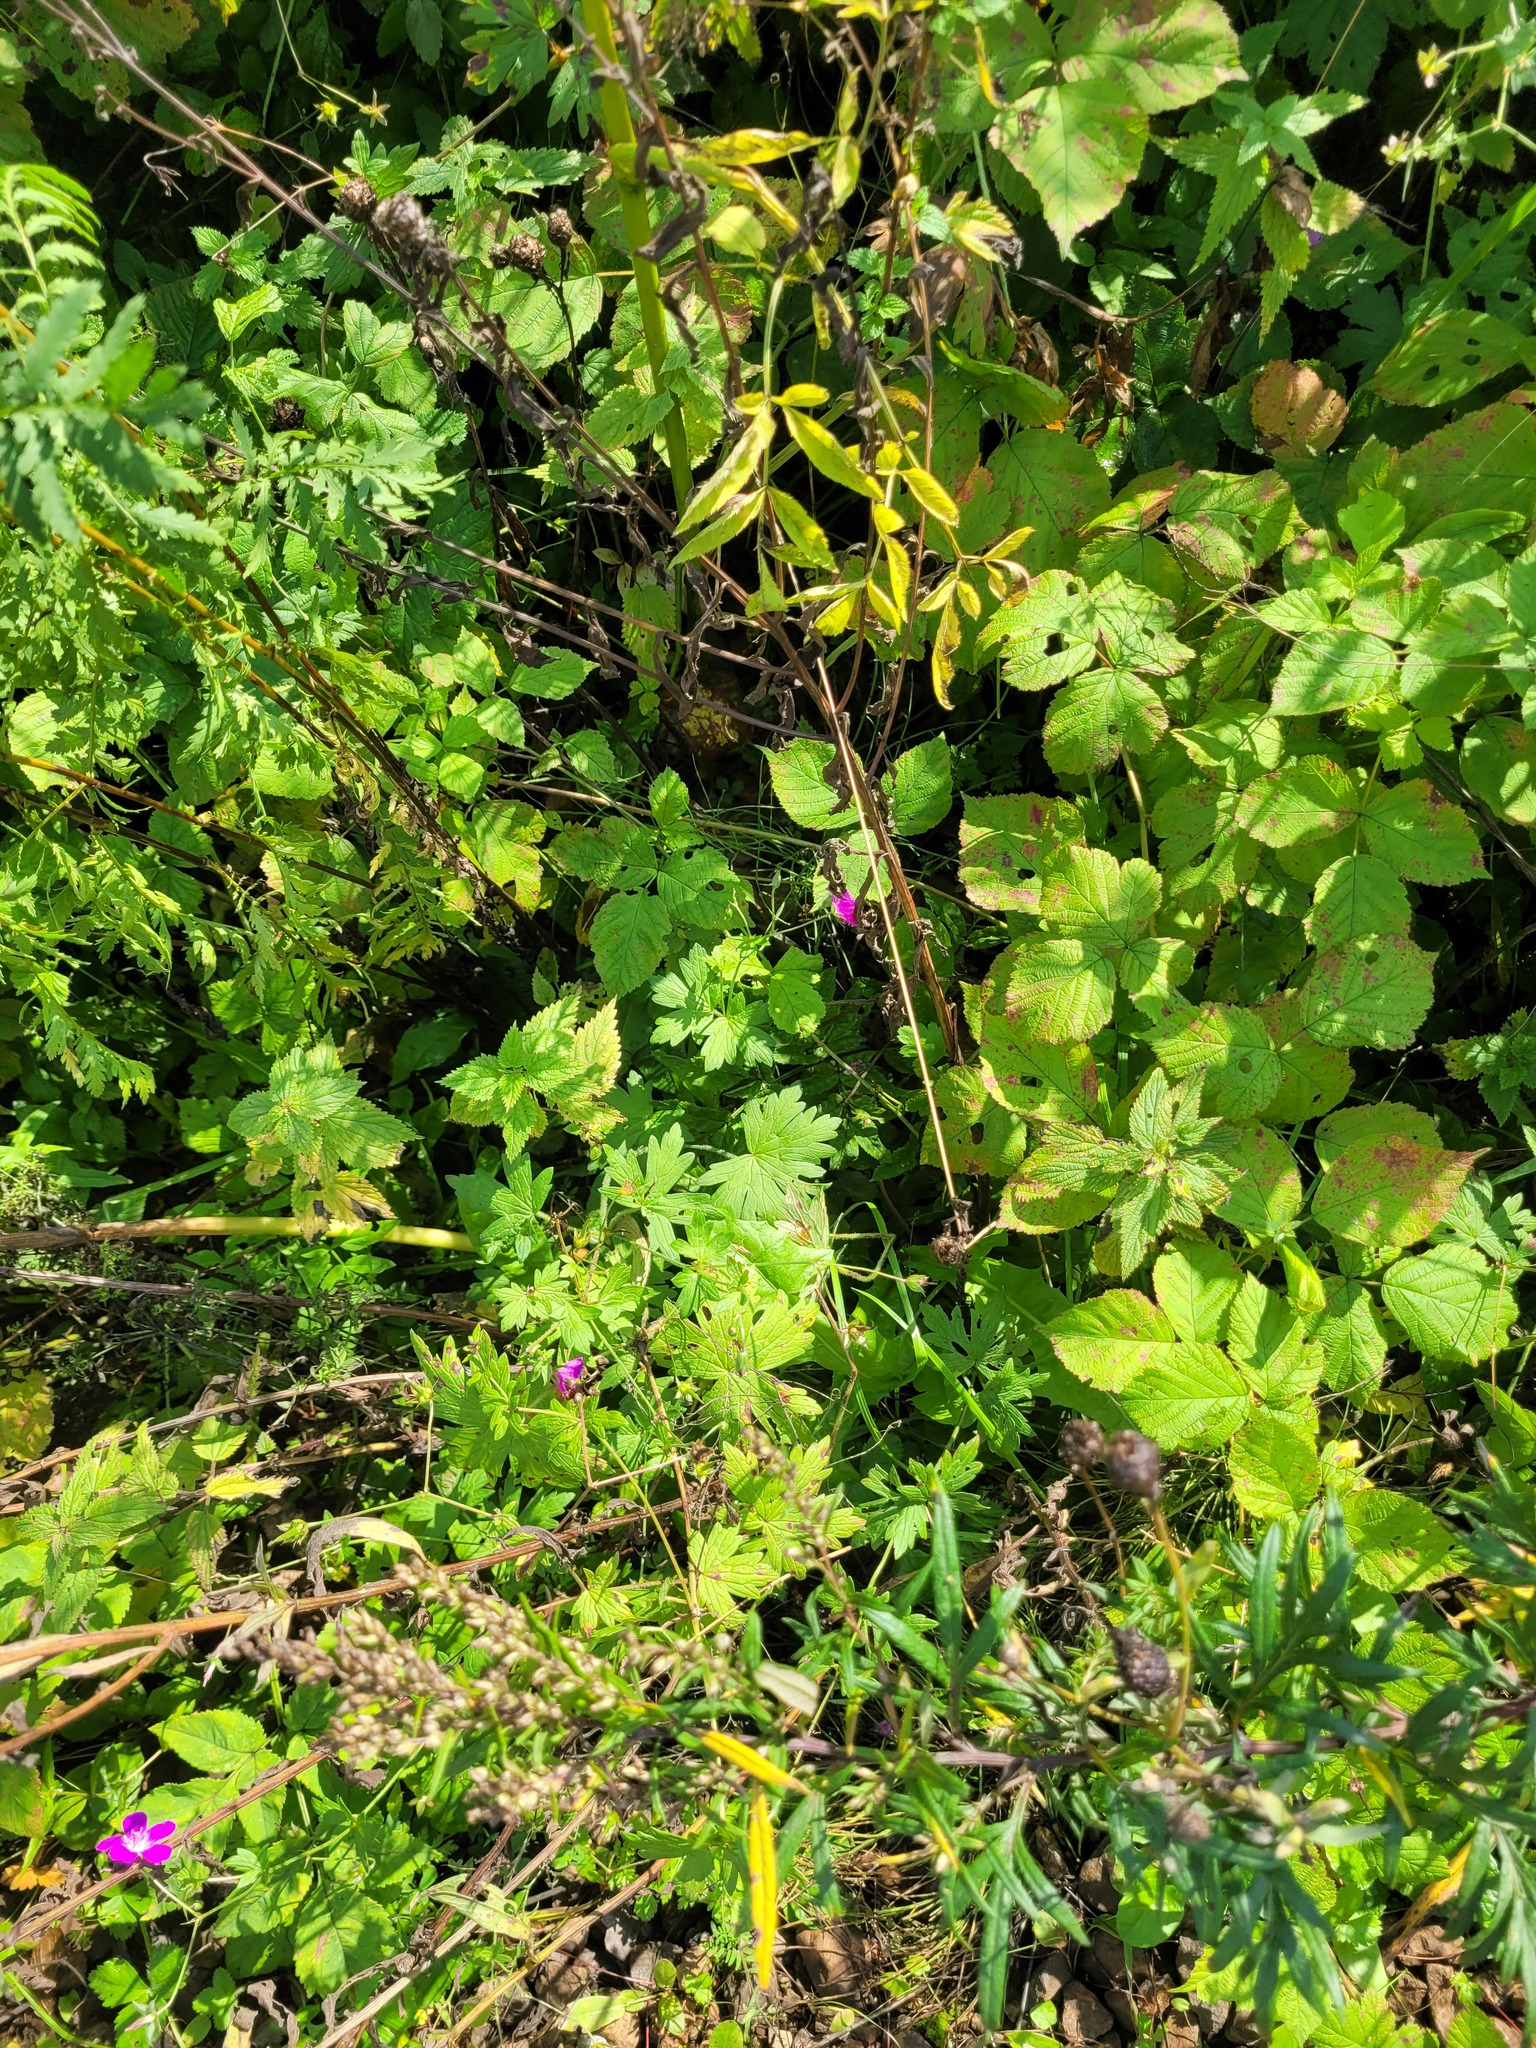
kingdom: Plantae
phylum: Tracheophyta
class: Magnoliopsida
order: Geraniales
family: Geraniaceae
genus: Geranium
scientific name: Geranium palustre
